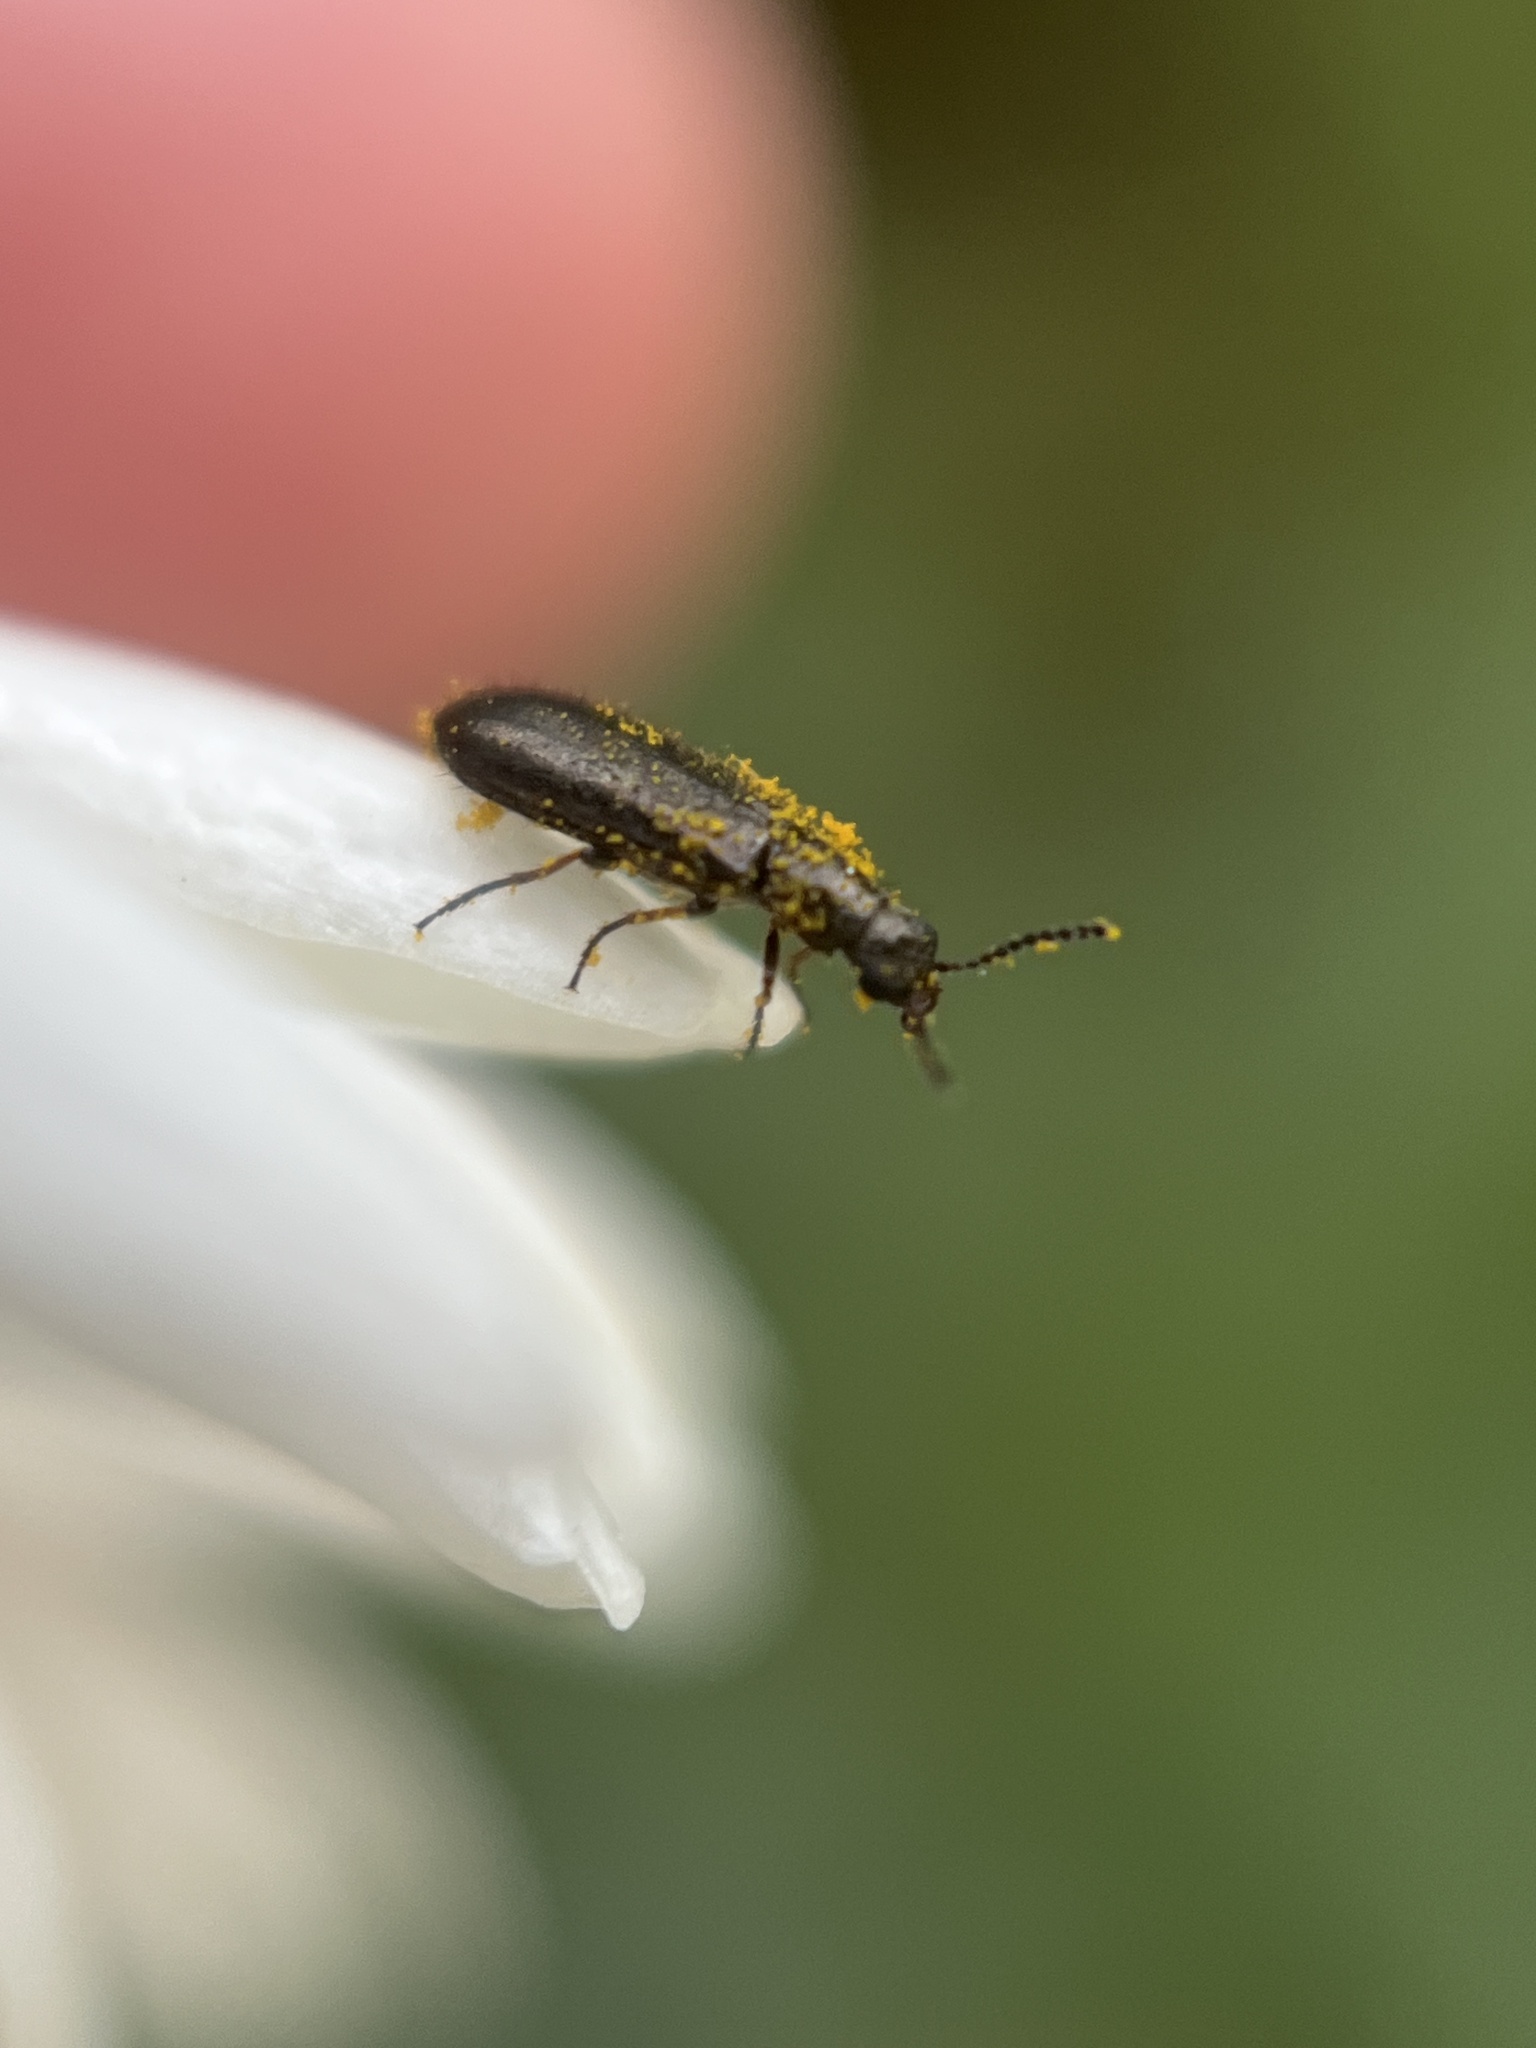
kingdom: Animalia
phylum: Arthropoda
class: Insecta
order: Coleoptera
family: Melyridae
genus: Dasytes
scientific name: Dasytes plumbeus
